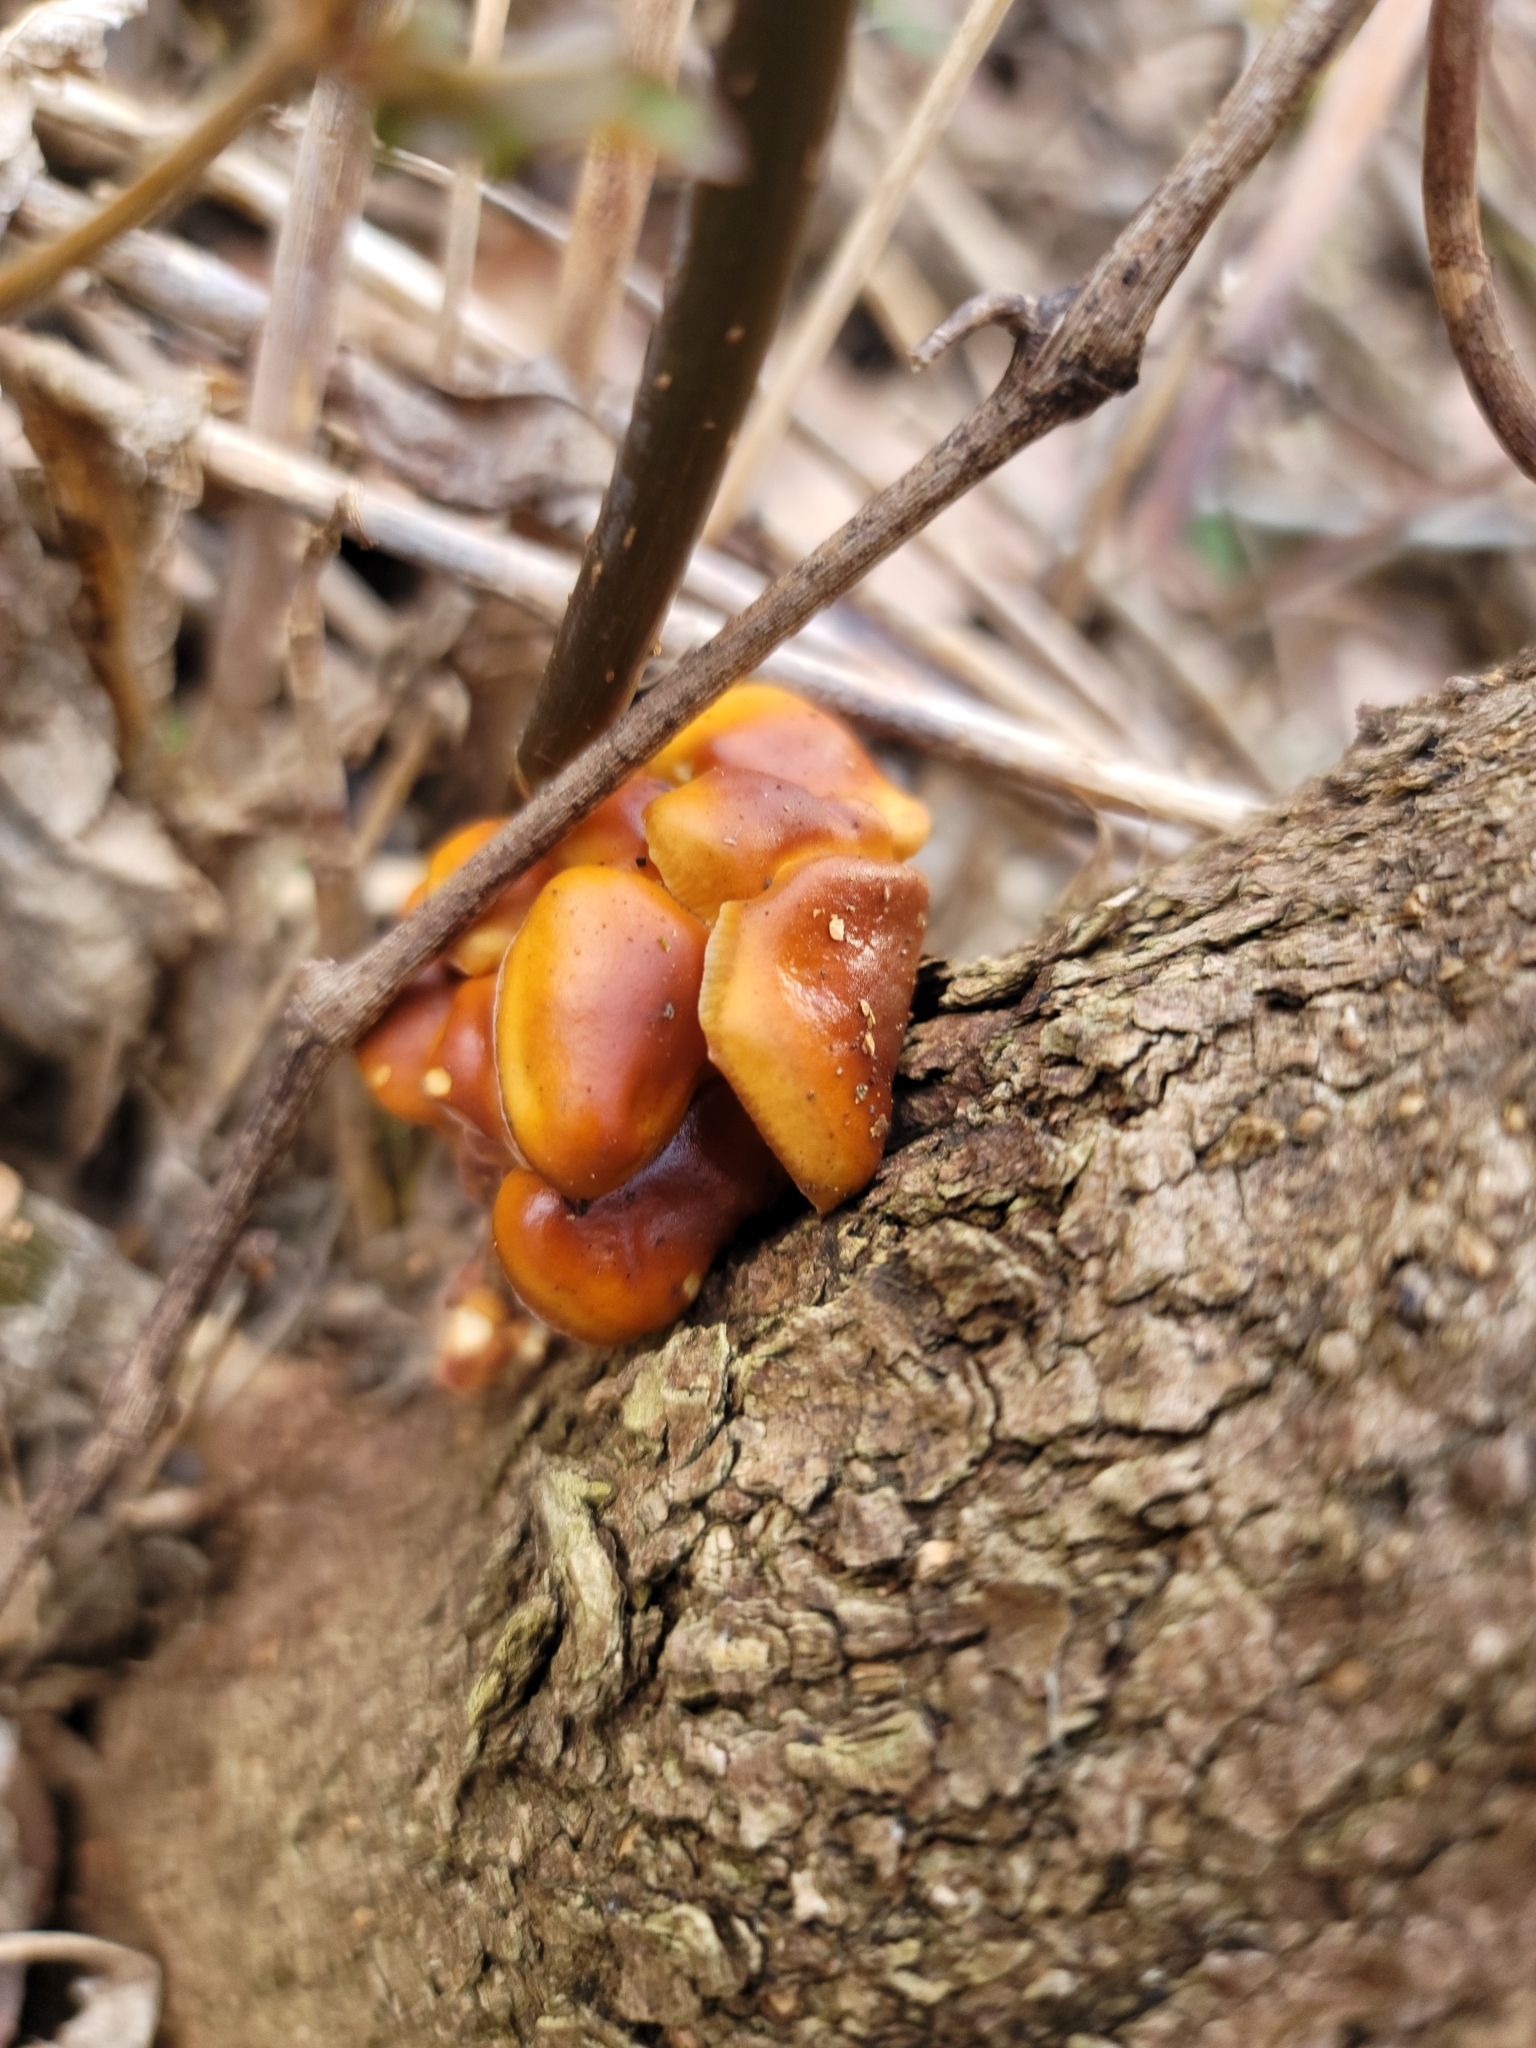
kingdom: Fungi
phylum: Basidiomycota
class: Agaricomycetes
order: Agaricales
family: Physalacriaceae
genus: Flammulina
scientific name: Flammulina velutipes
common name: Velvet shank
